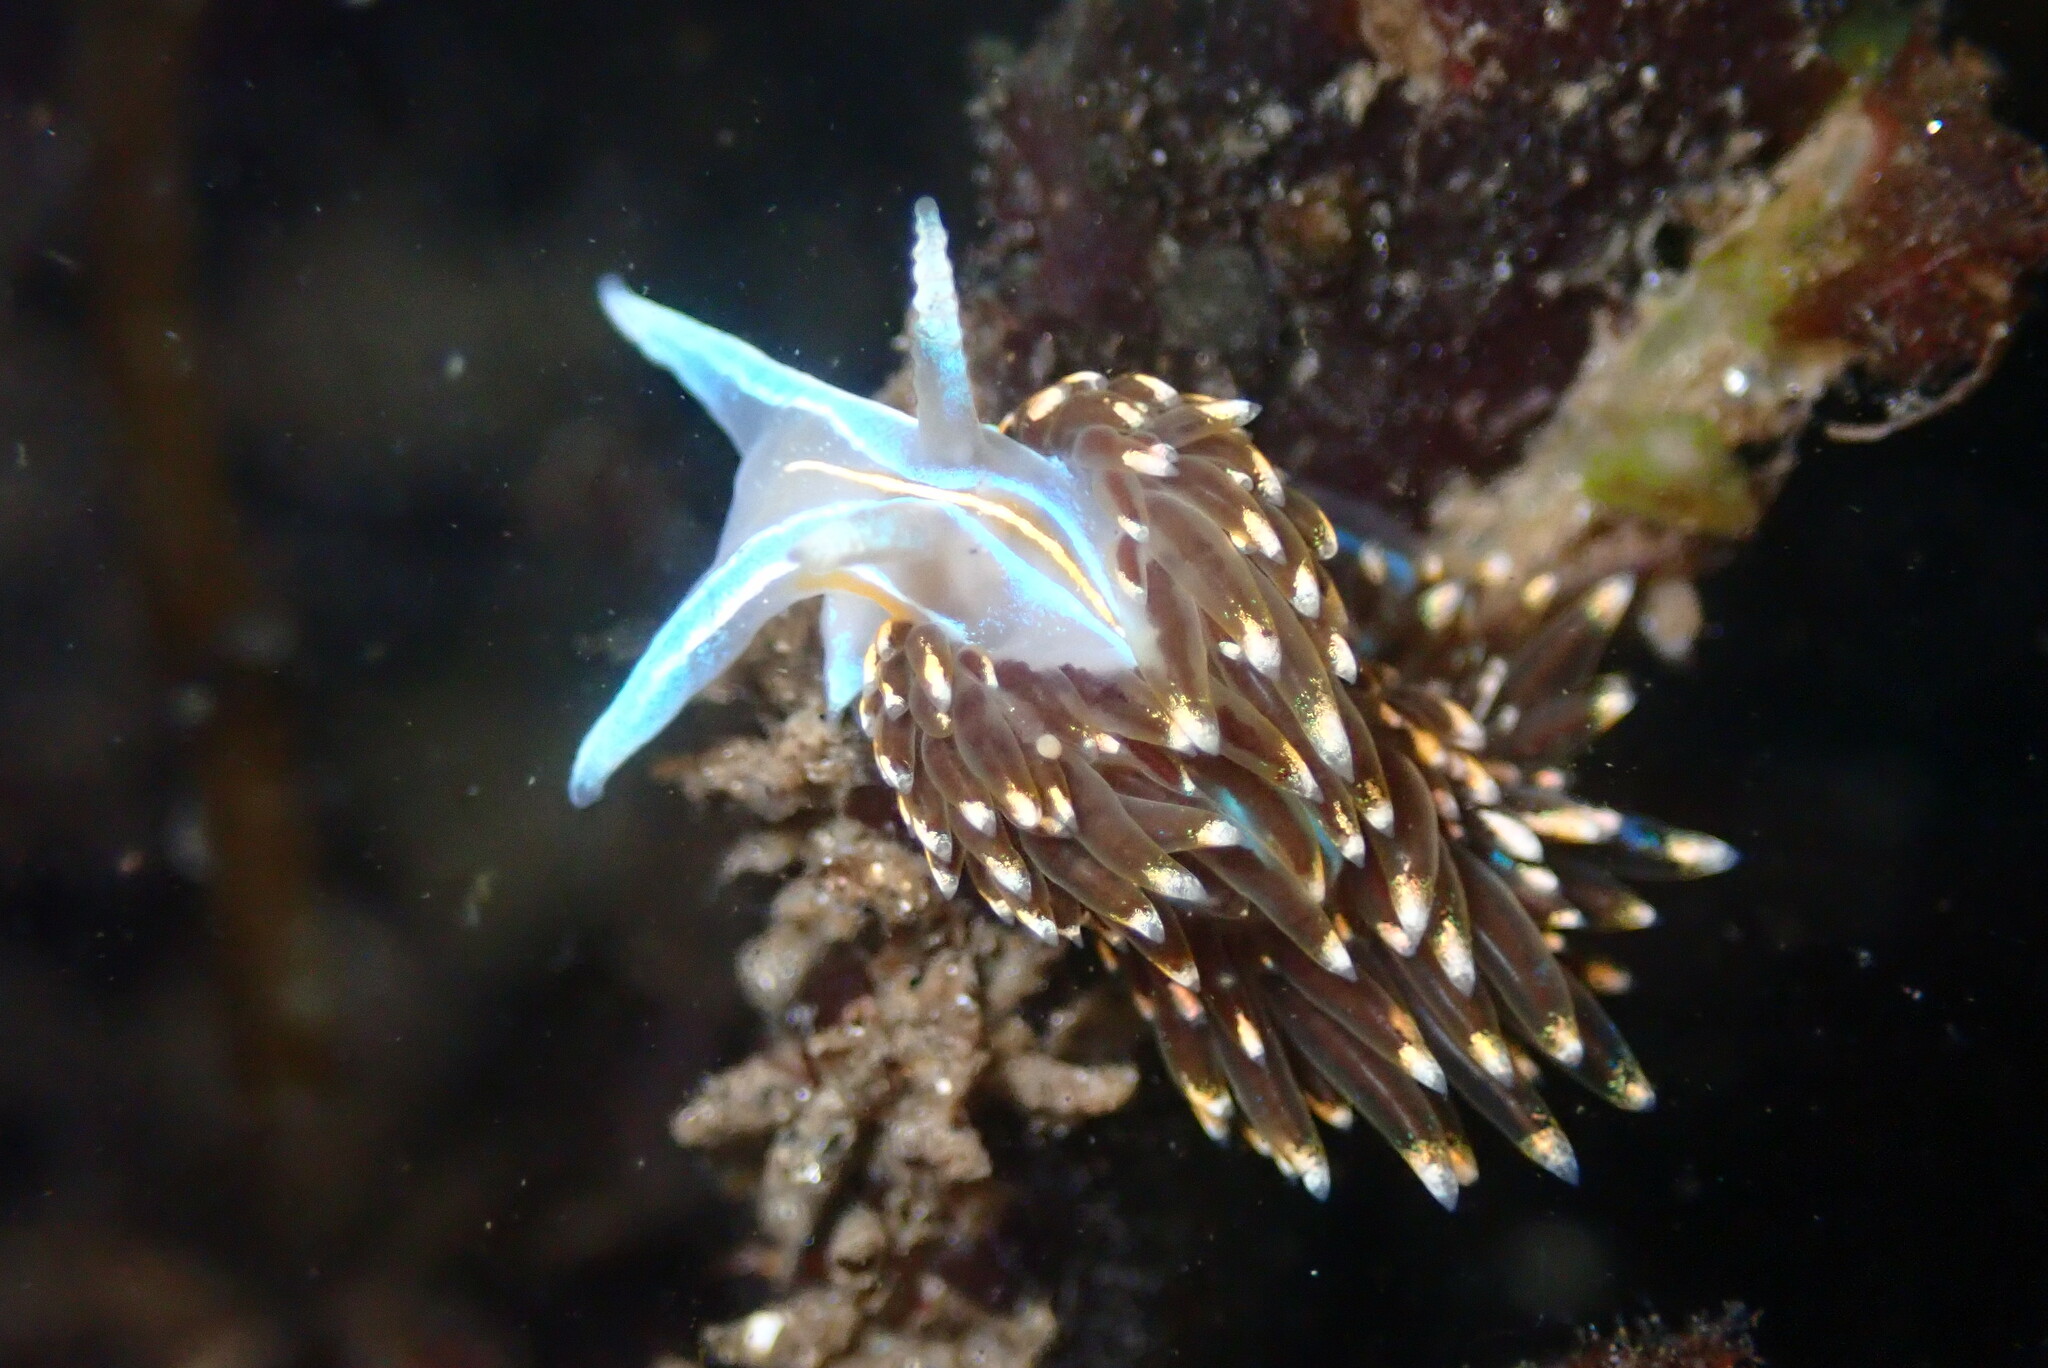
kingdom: Animalia
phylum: Mollusca
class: Gastropoda
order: Nudibranchia
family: Myrrhinidae
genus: Hermissenda
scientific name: Hermissenda opalescens
